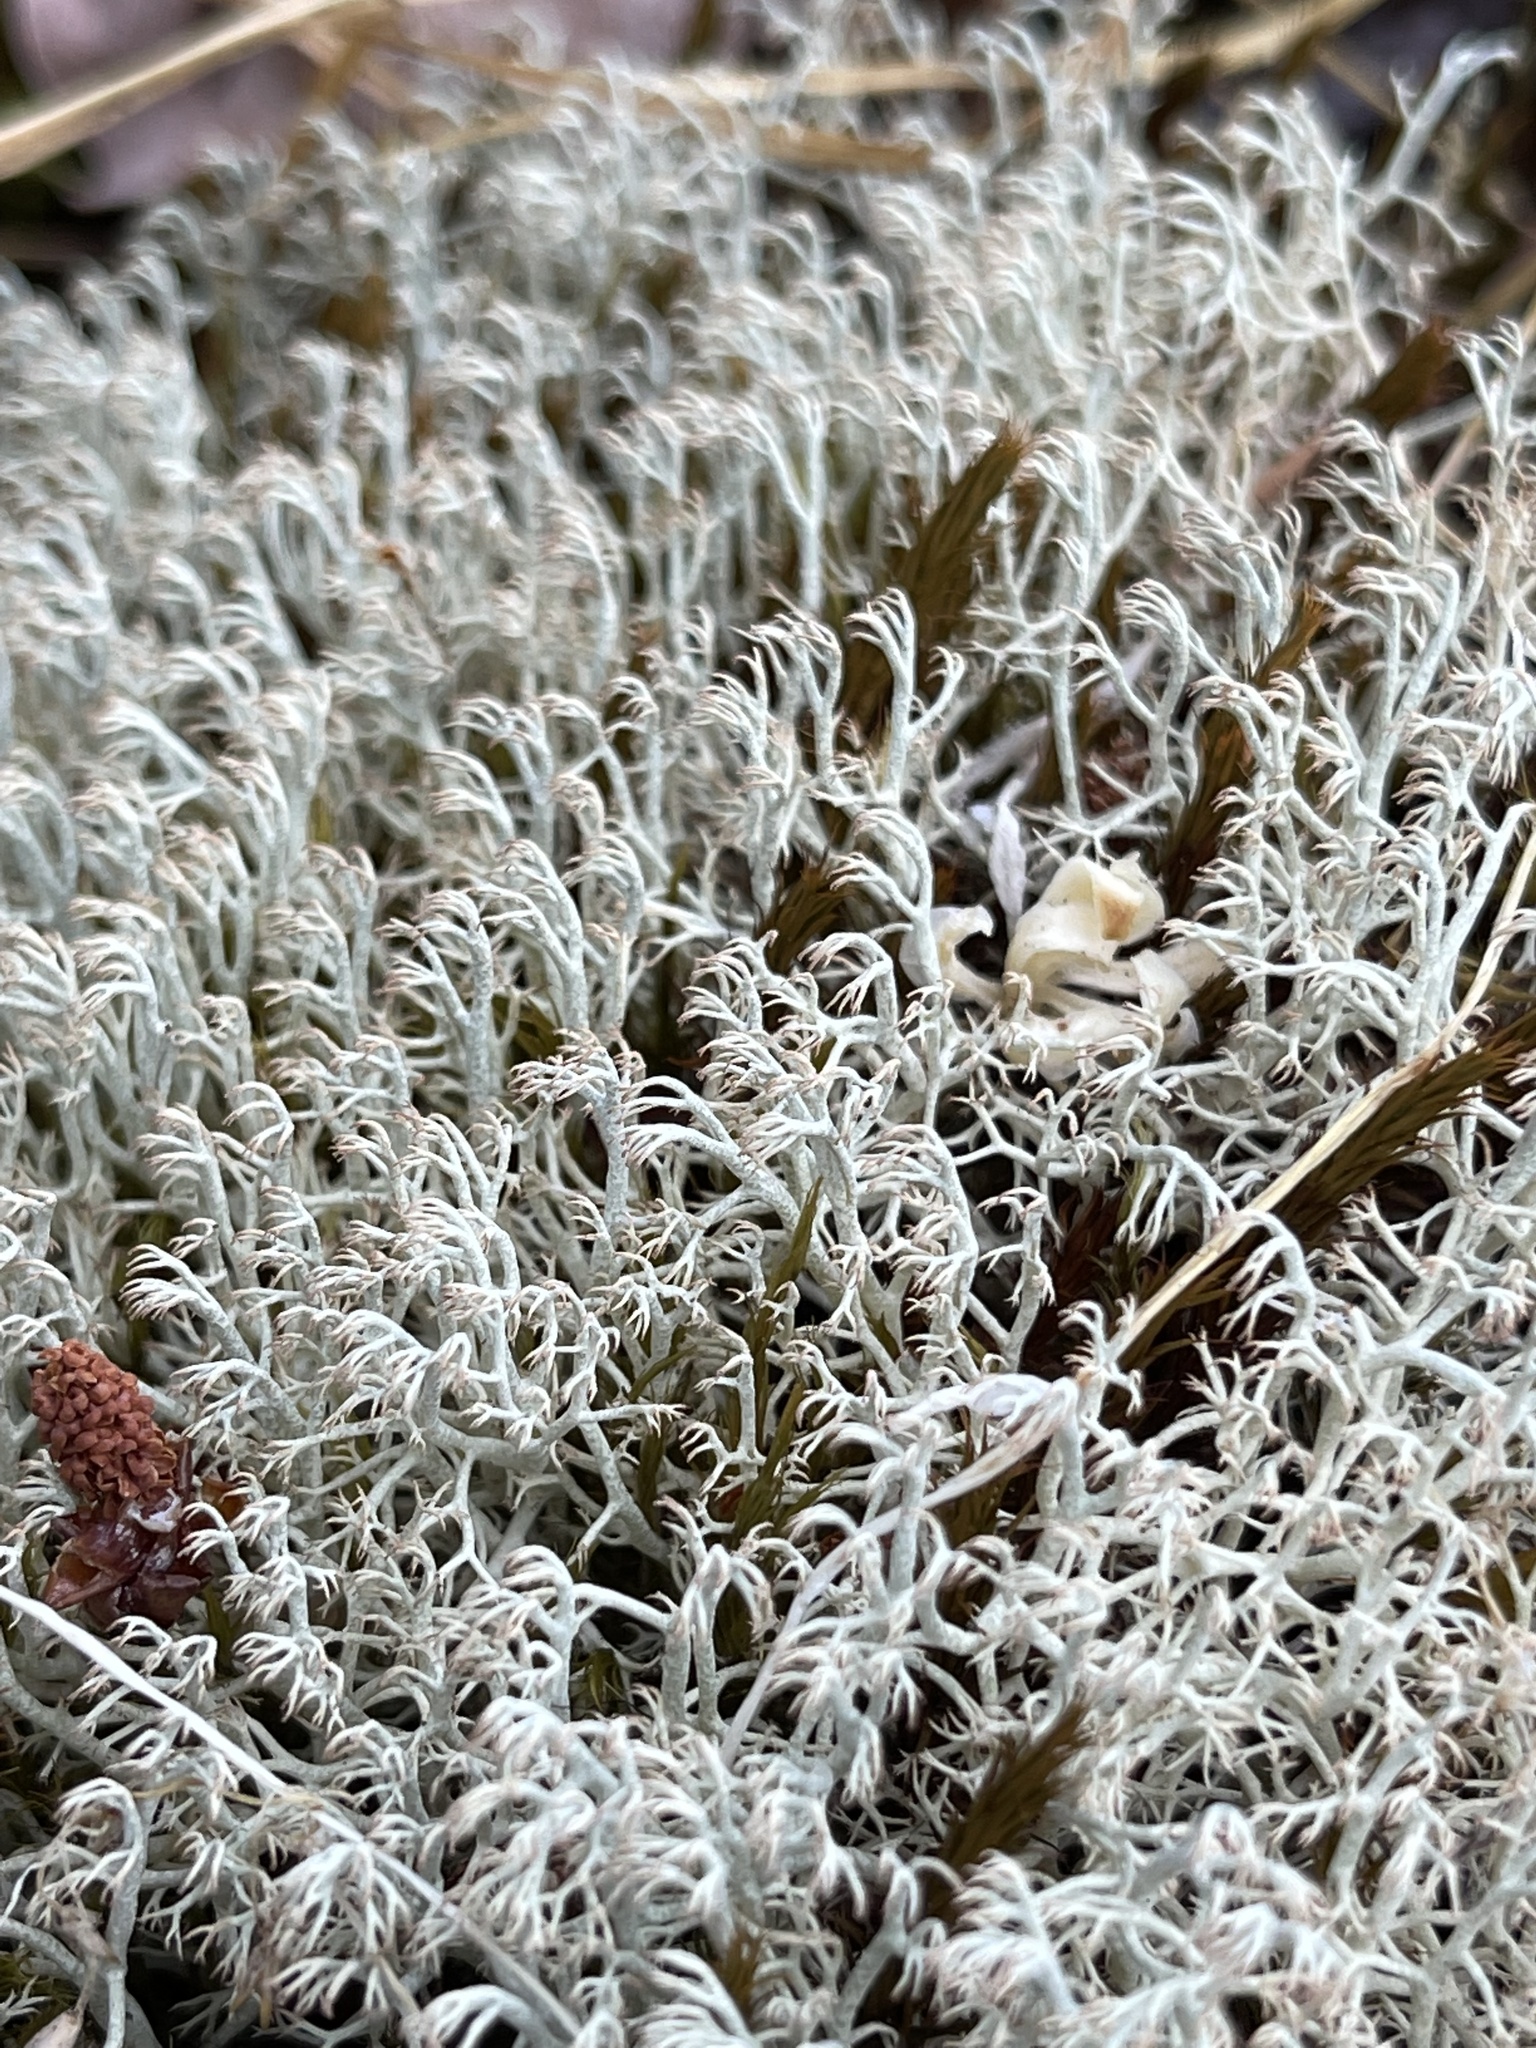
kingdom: Fungi
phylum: Ascomycota
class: Lecanoromycetes
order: Lecanorales
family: Cladoniaceae
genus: Cladonia
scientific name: Cladonia rangiferina
